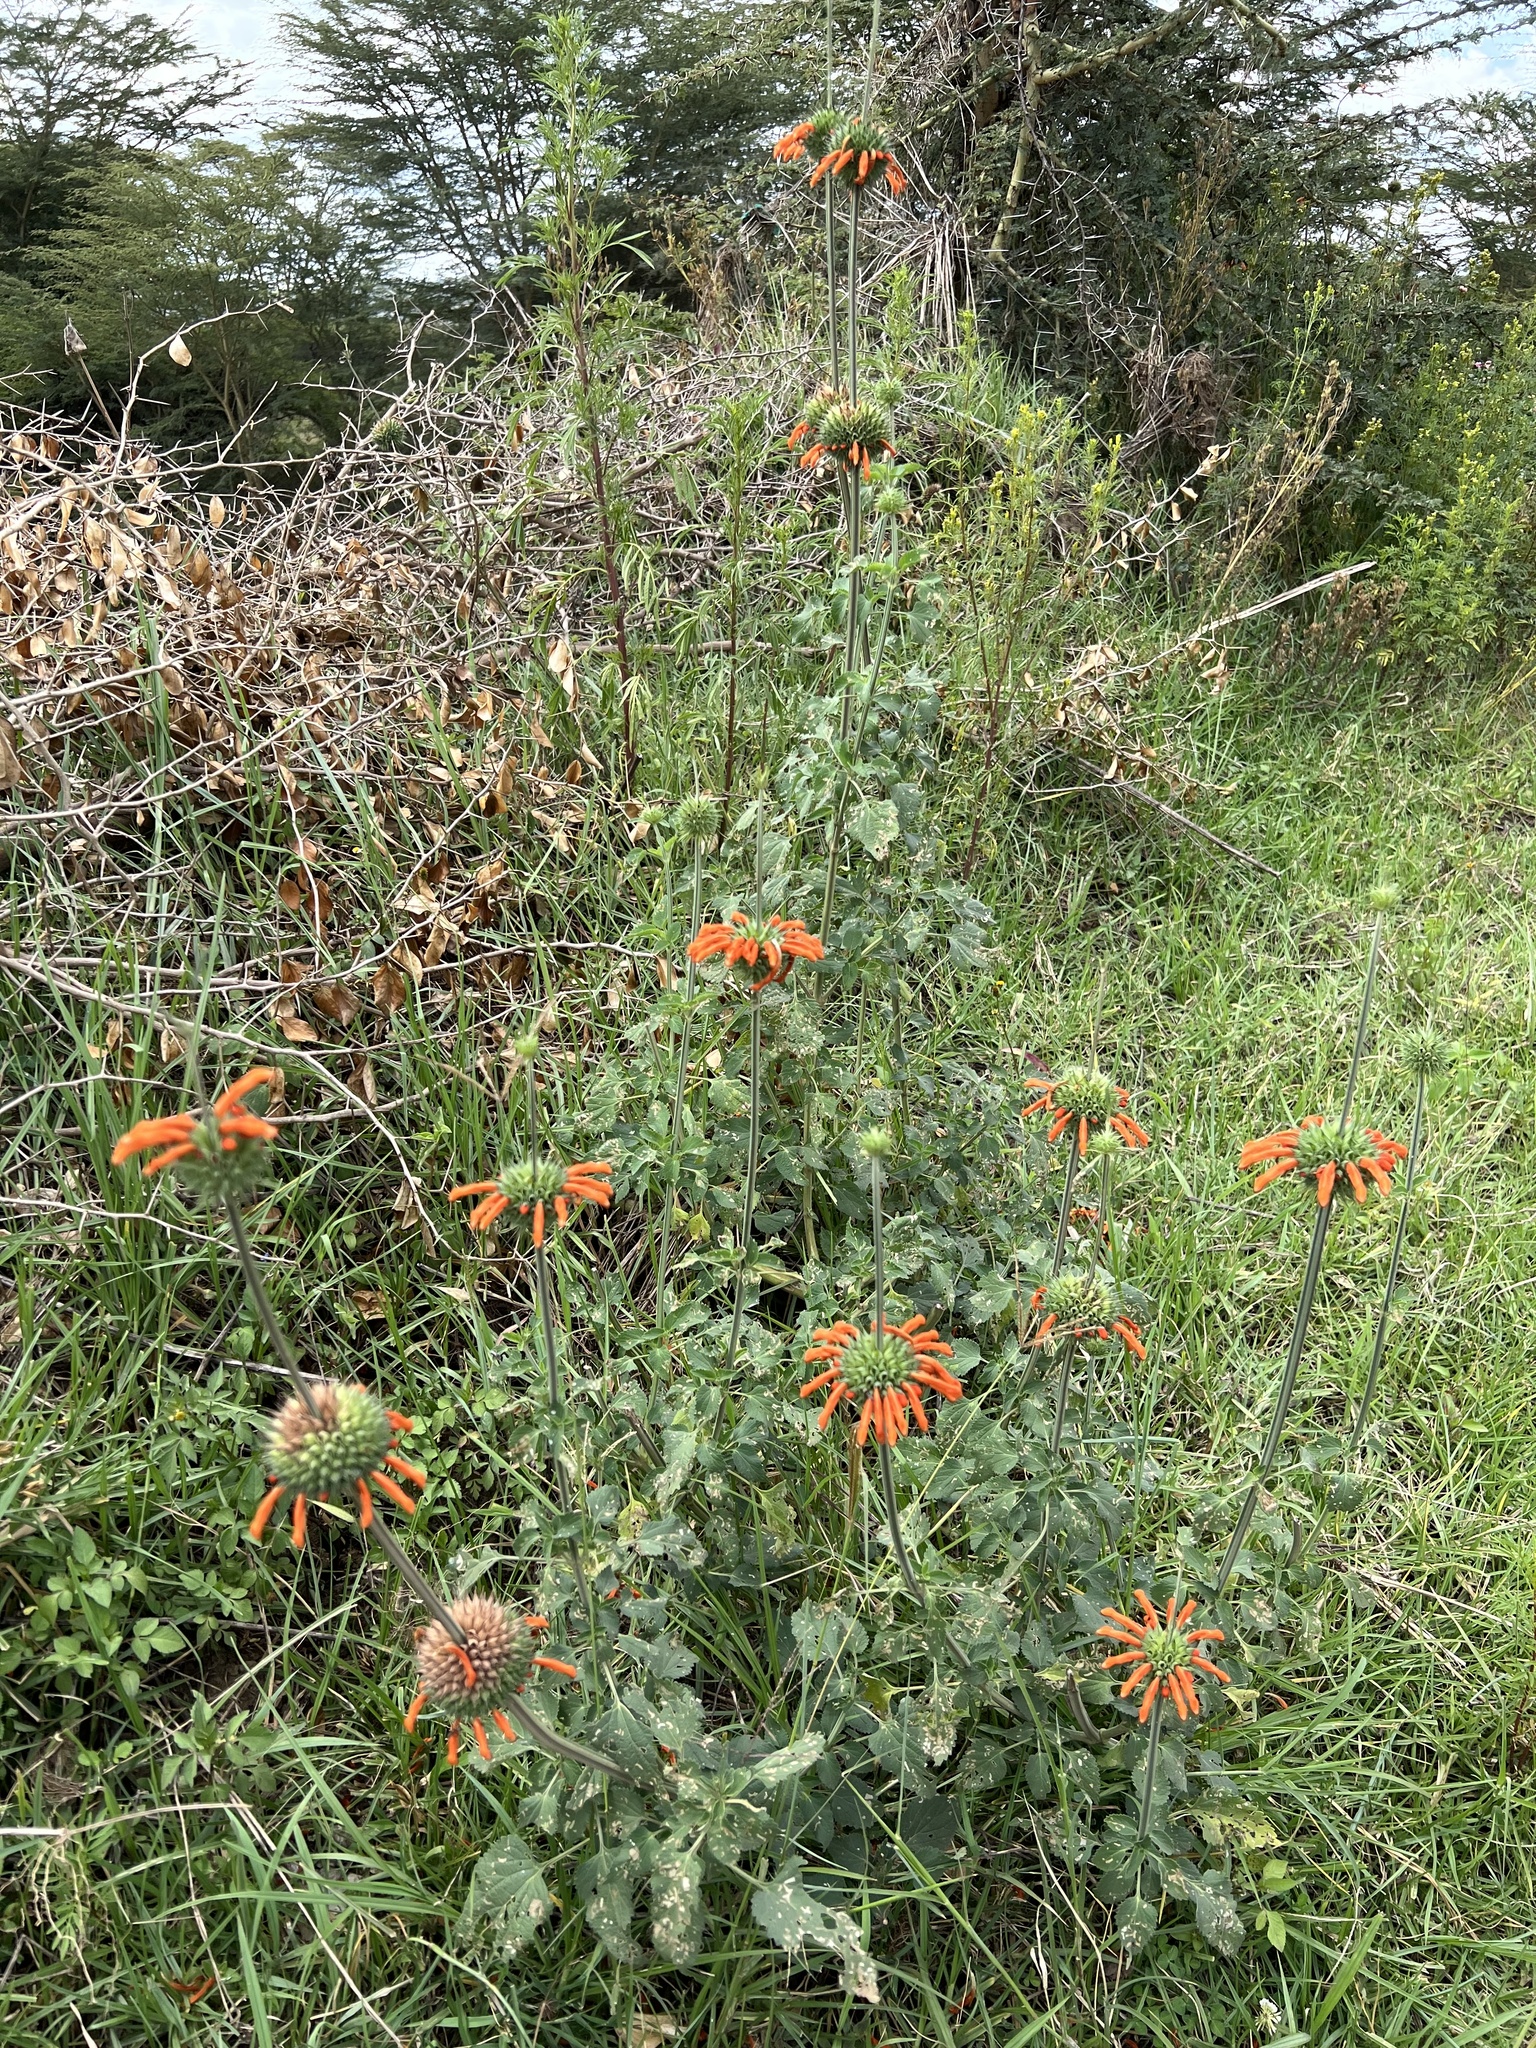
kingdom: Plantae
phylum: Tracheophyta
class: Magnoliopsida
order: Lamiales
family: Lamiaceae
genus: Leonotis
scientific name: Leonotis nepetifolia
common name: Christmas candlestick
